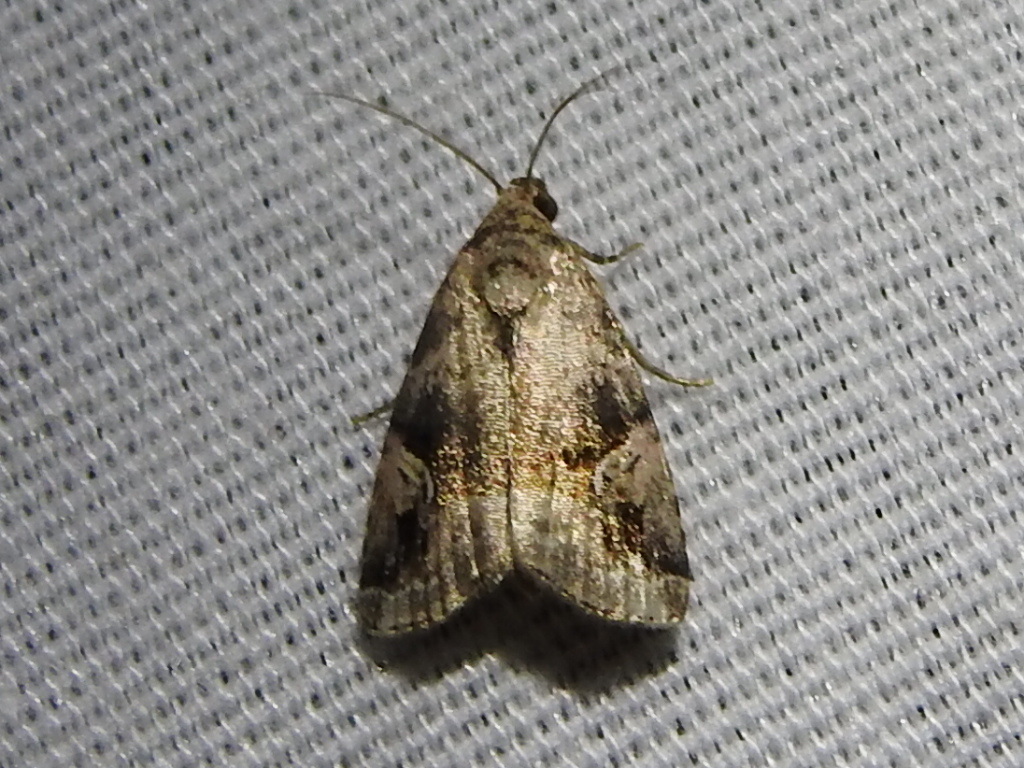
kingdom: Animalia
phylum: Arthropoda
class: Insecta
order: Lepidoptera
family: Noctuidae
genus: Ozarba
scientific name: Ozarba nebula
